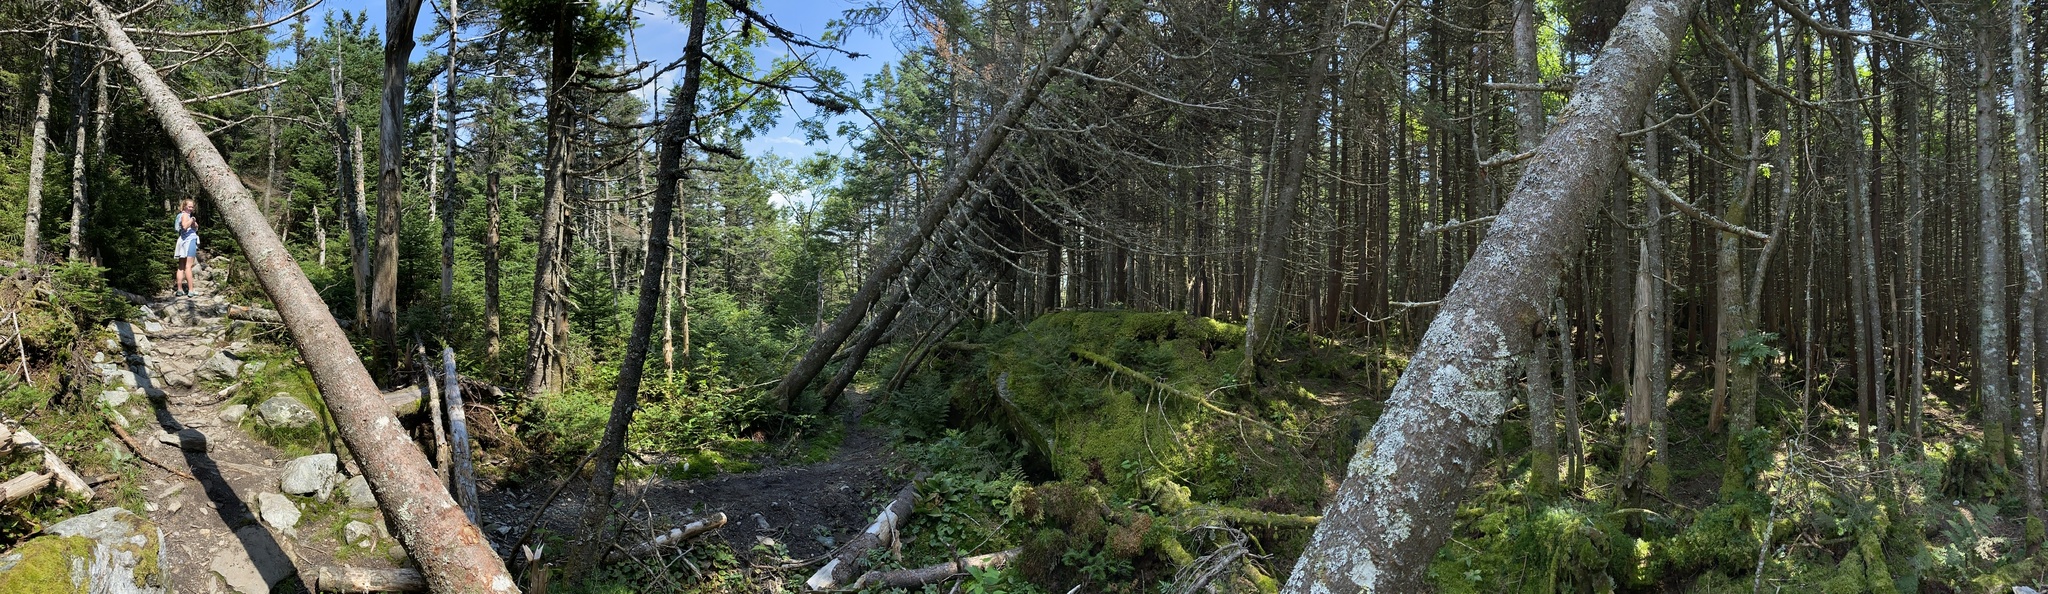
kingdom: Plantae
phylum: Tracheophyta
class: Pinopsida
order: Pinales
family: Pinaceae
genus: Abies
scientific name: Abies balsamea
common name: Balsam fir
